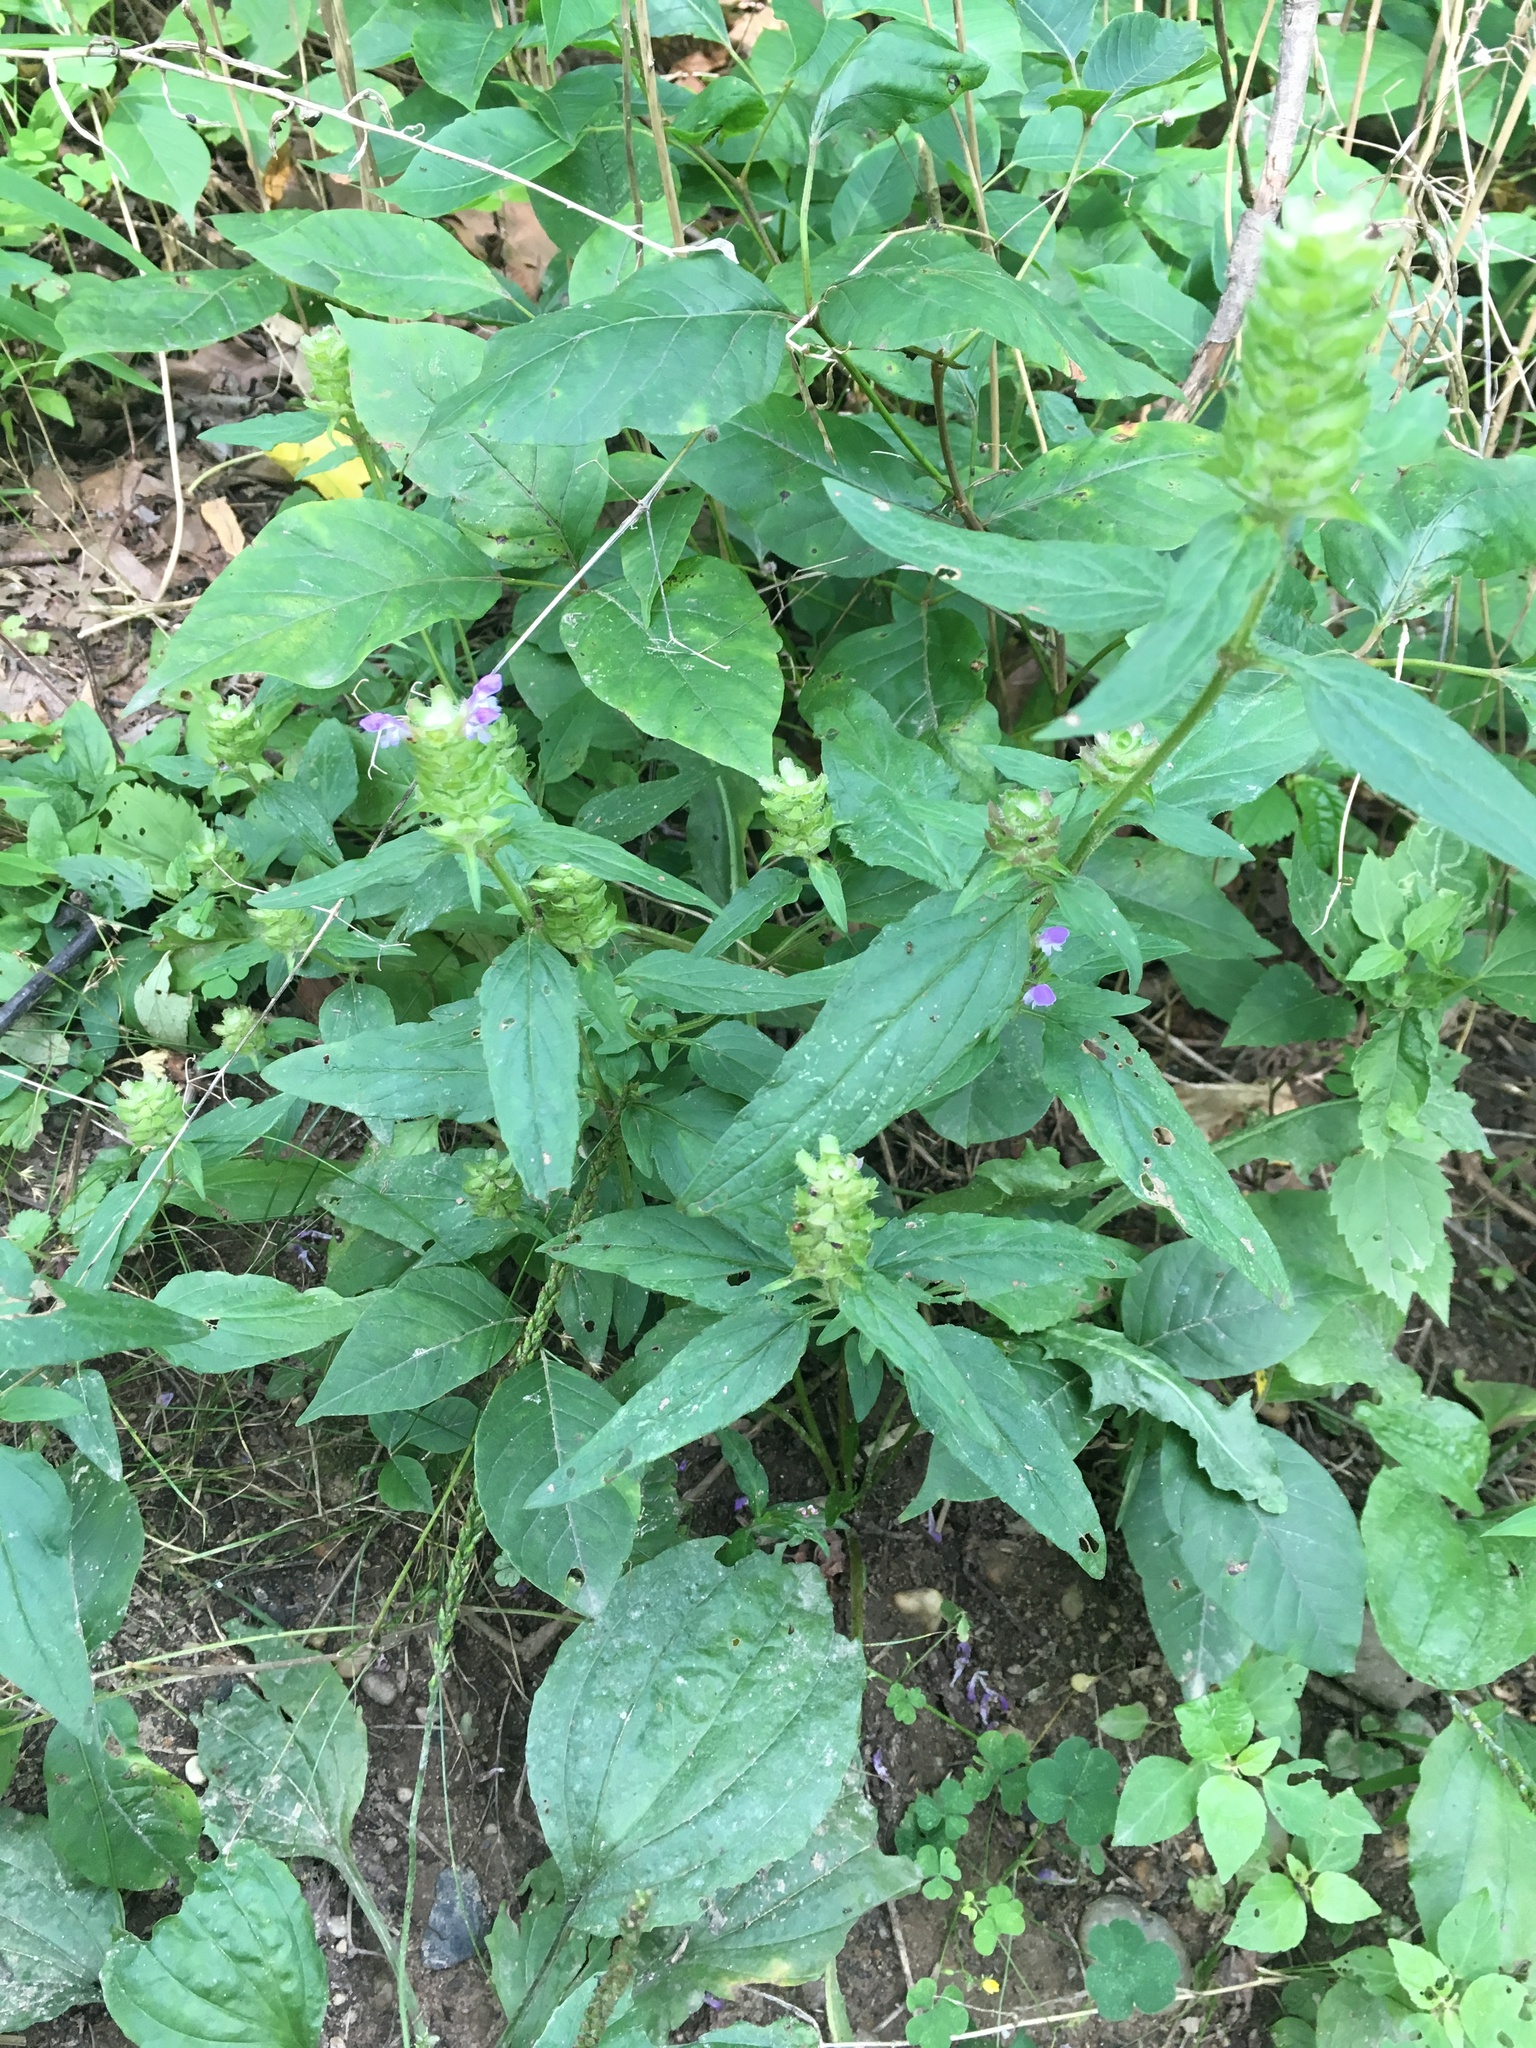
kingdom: Plantae
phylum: Tracheophyta
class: Magnoliopsida
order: Lamiales
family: Lamiaceae
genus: Prunella
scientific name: Prunella vulgaris
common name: Heal-all
